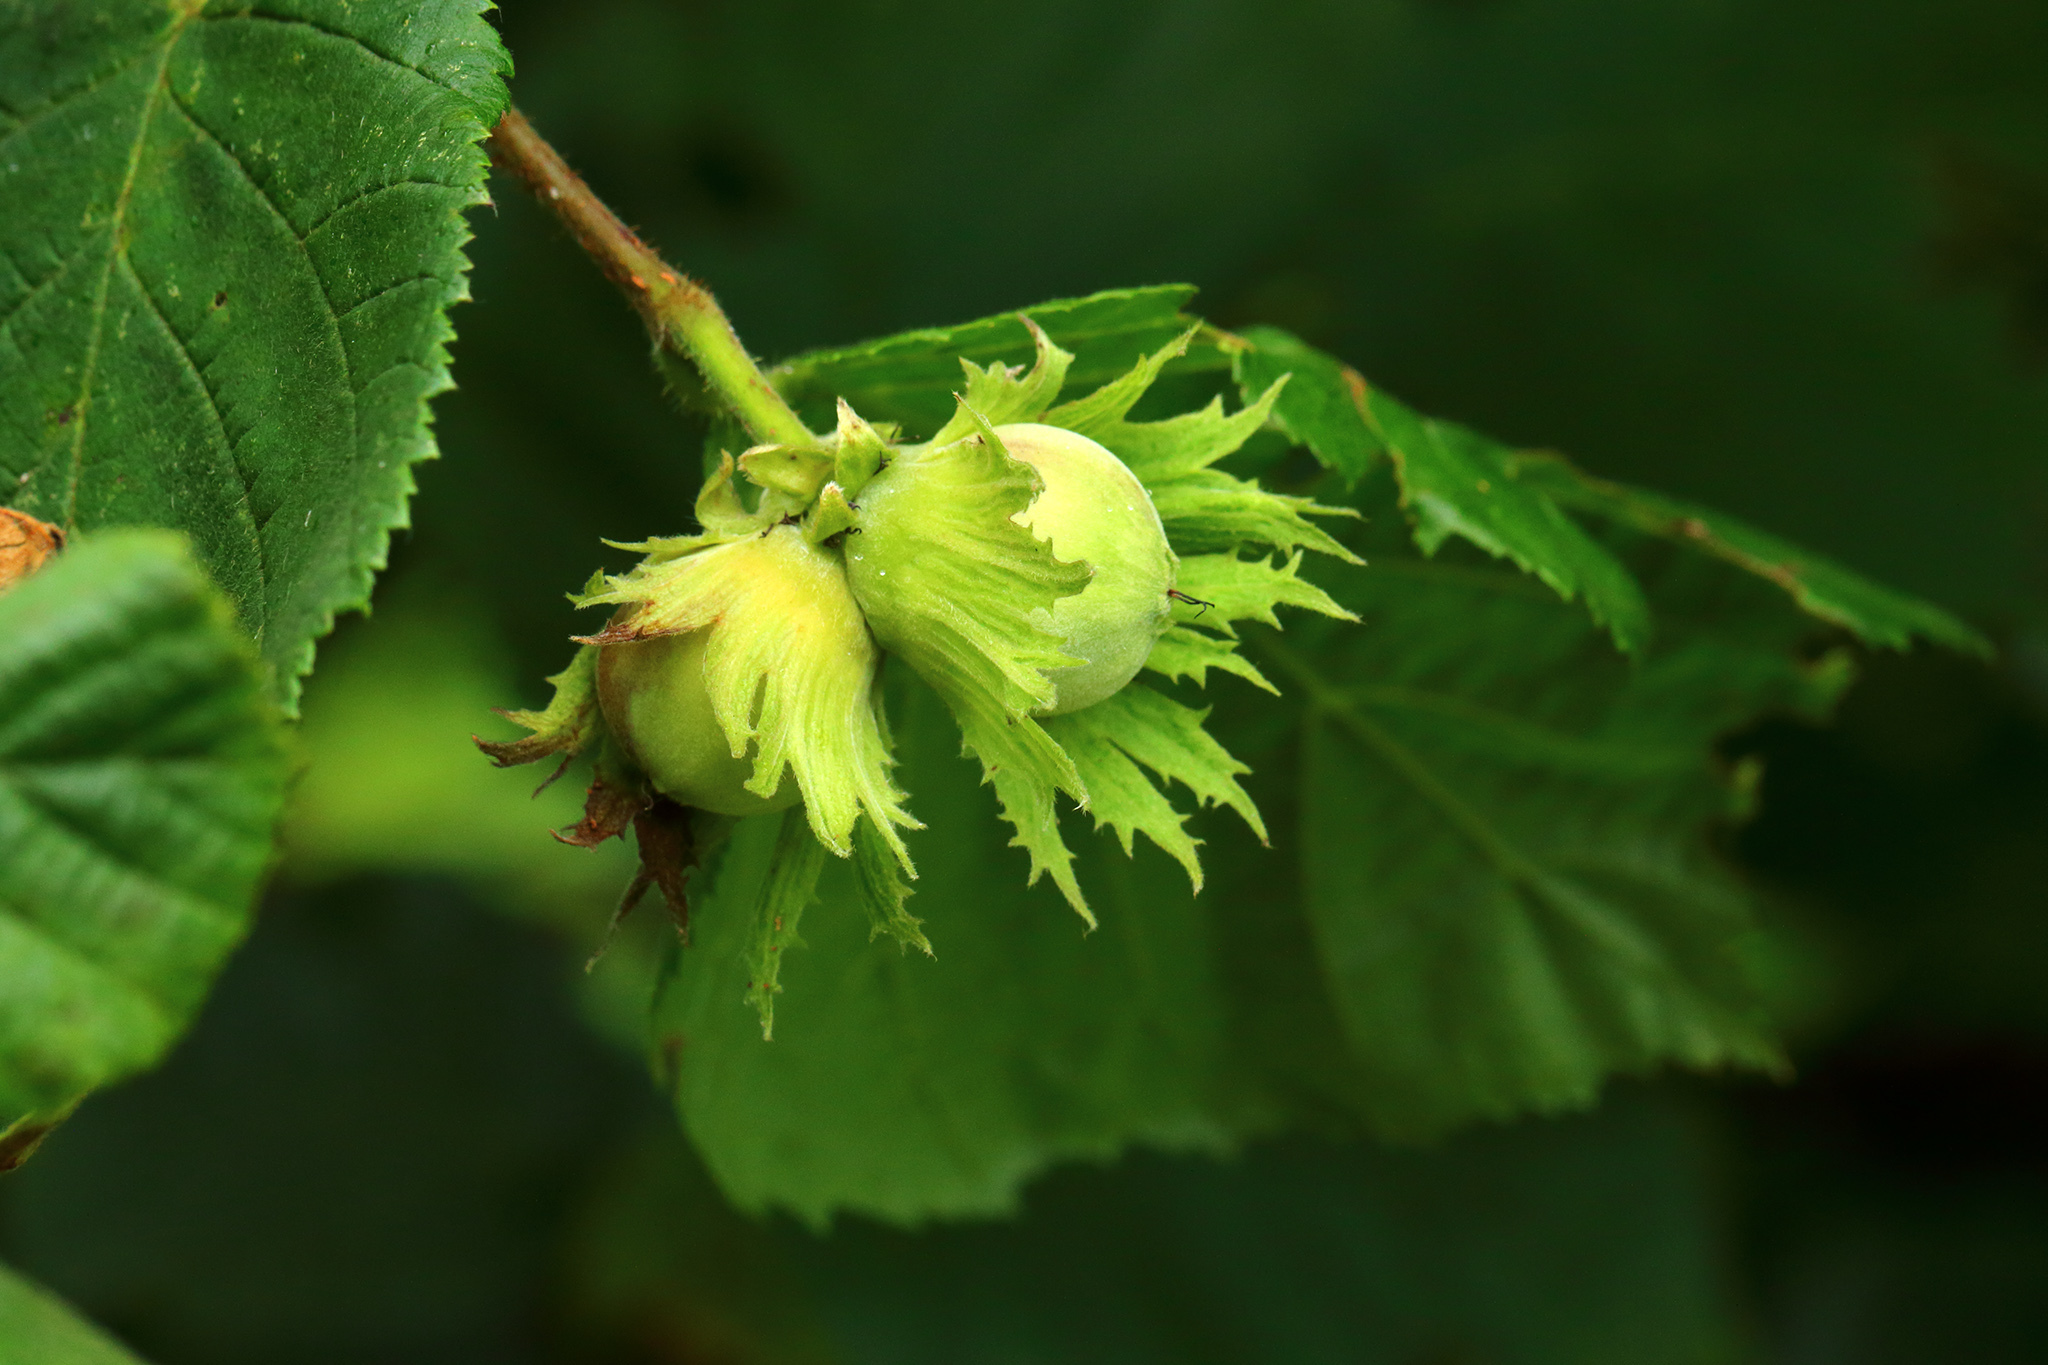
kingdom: Plantae
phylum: Tracheophyta
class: Magnoliopsida
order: Fagales
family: Betulaceae
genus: Corylus
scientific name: Corylus avellana
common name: European hazel
